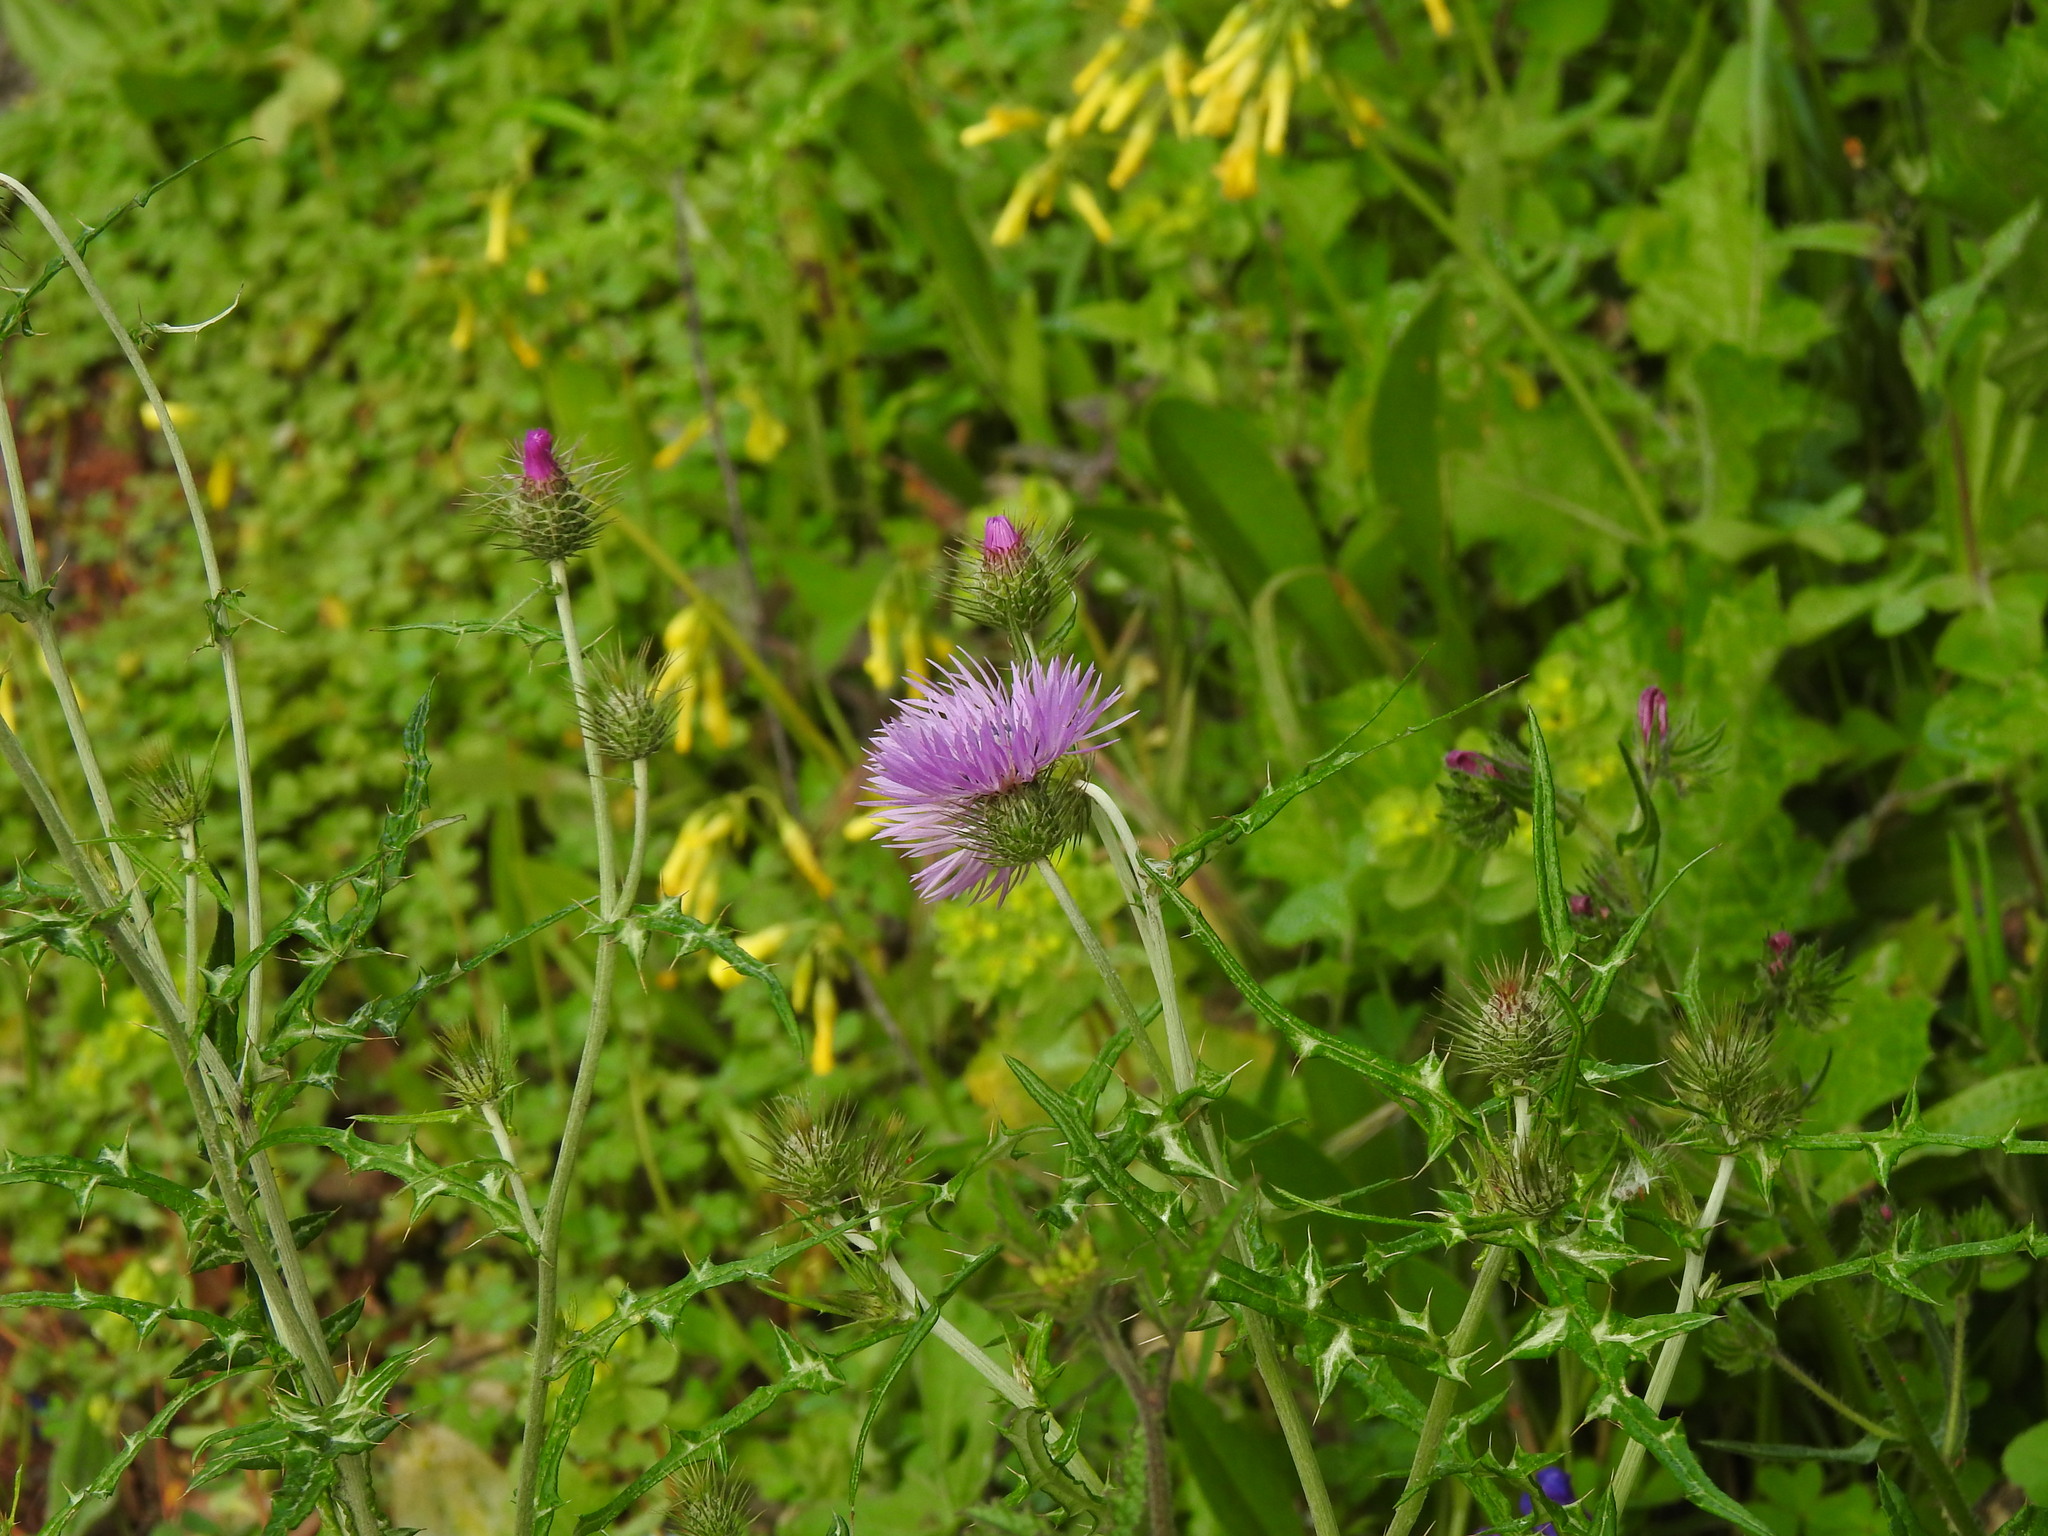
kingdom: Plantae
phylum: Tracheophyta
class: Magnoliopsida
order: Asterales
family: Asteraceae
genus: Galactites
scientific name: Galactites tomentosa
